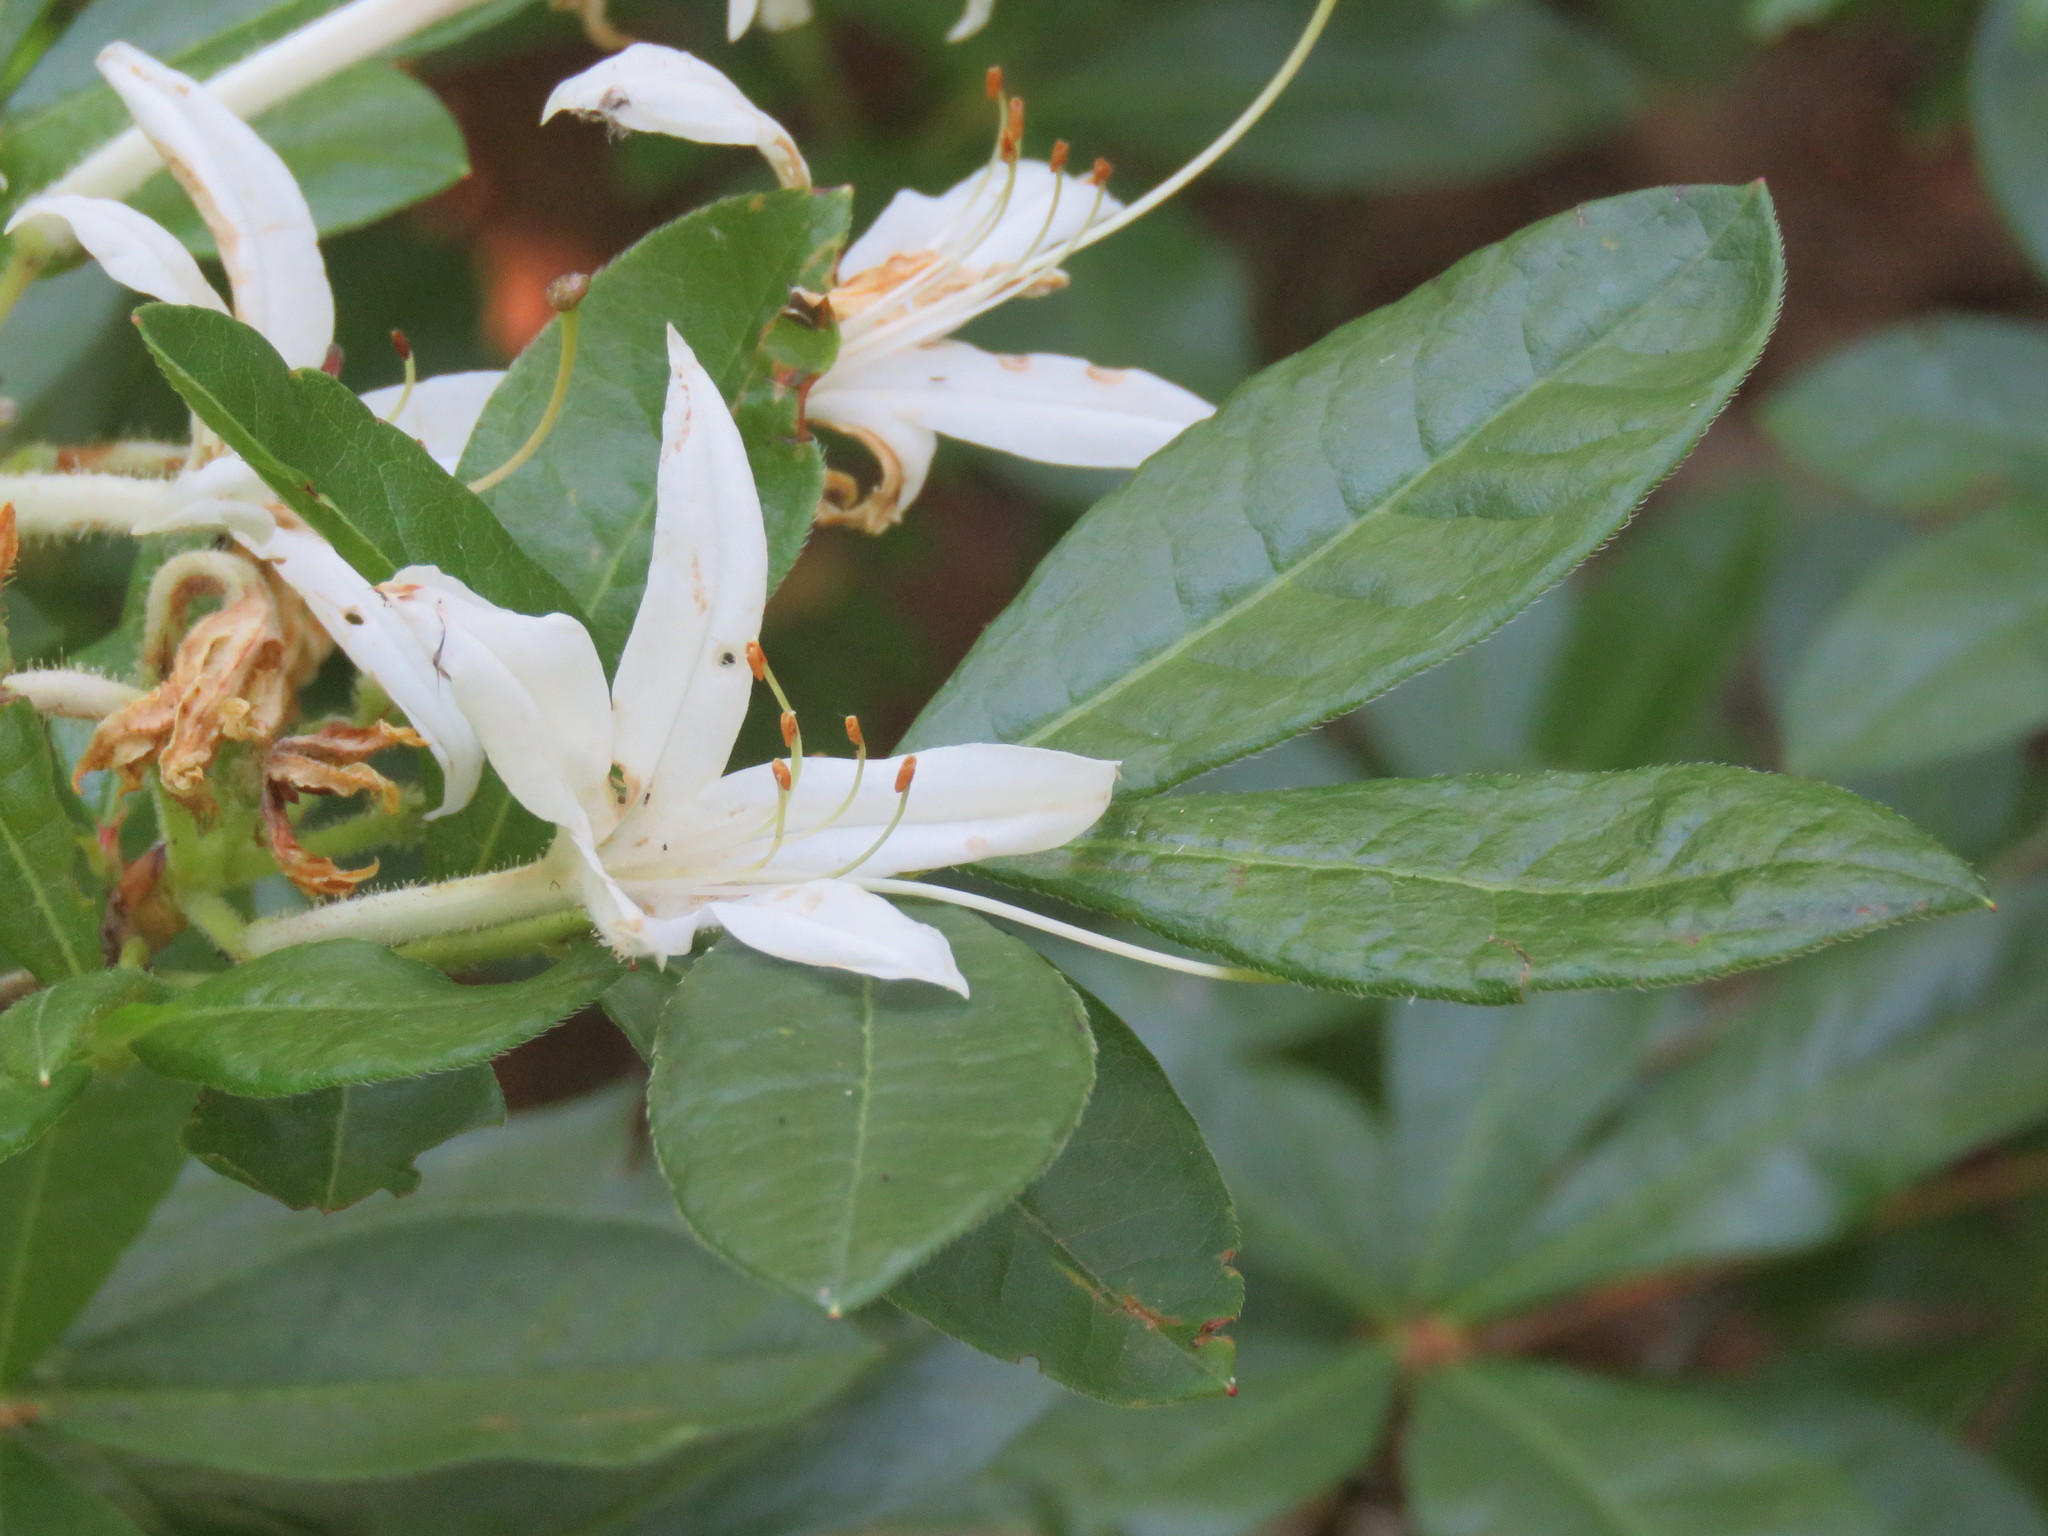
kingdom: Plantae
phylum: Tracheophyta
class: Magnoliopsida
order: Ericales
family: Ericaceae
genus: Rhododendron
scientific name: Rhododendron viscosum
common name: Clammy azalea
